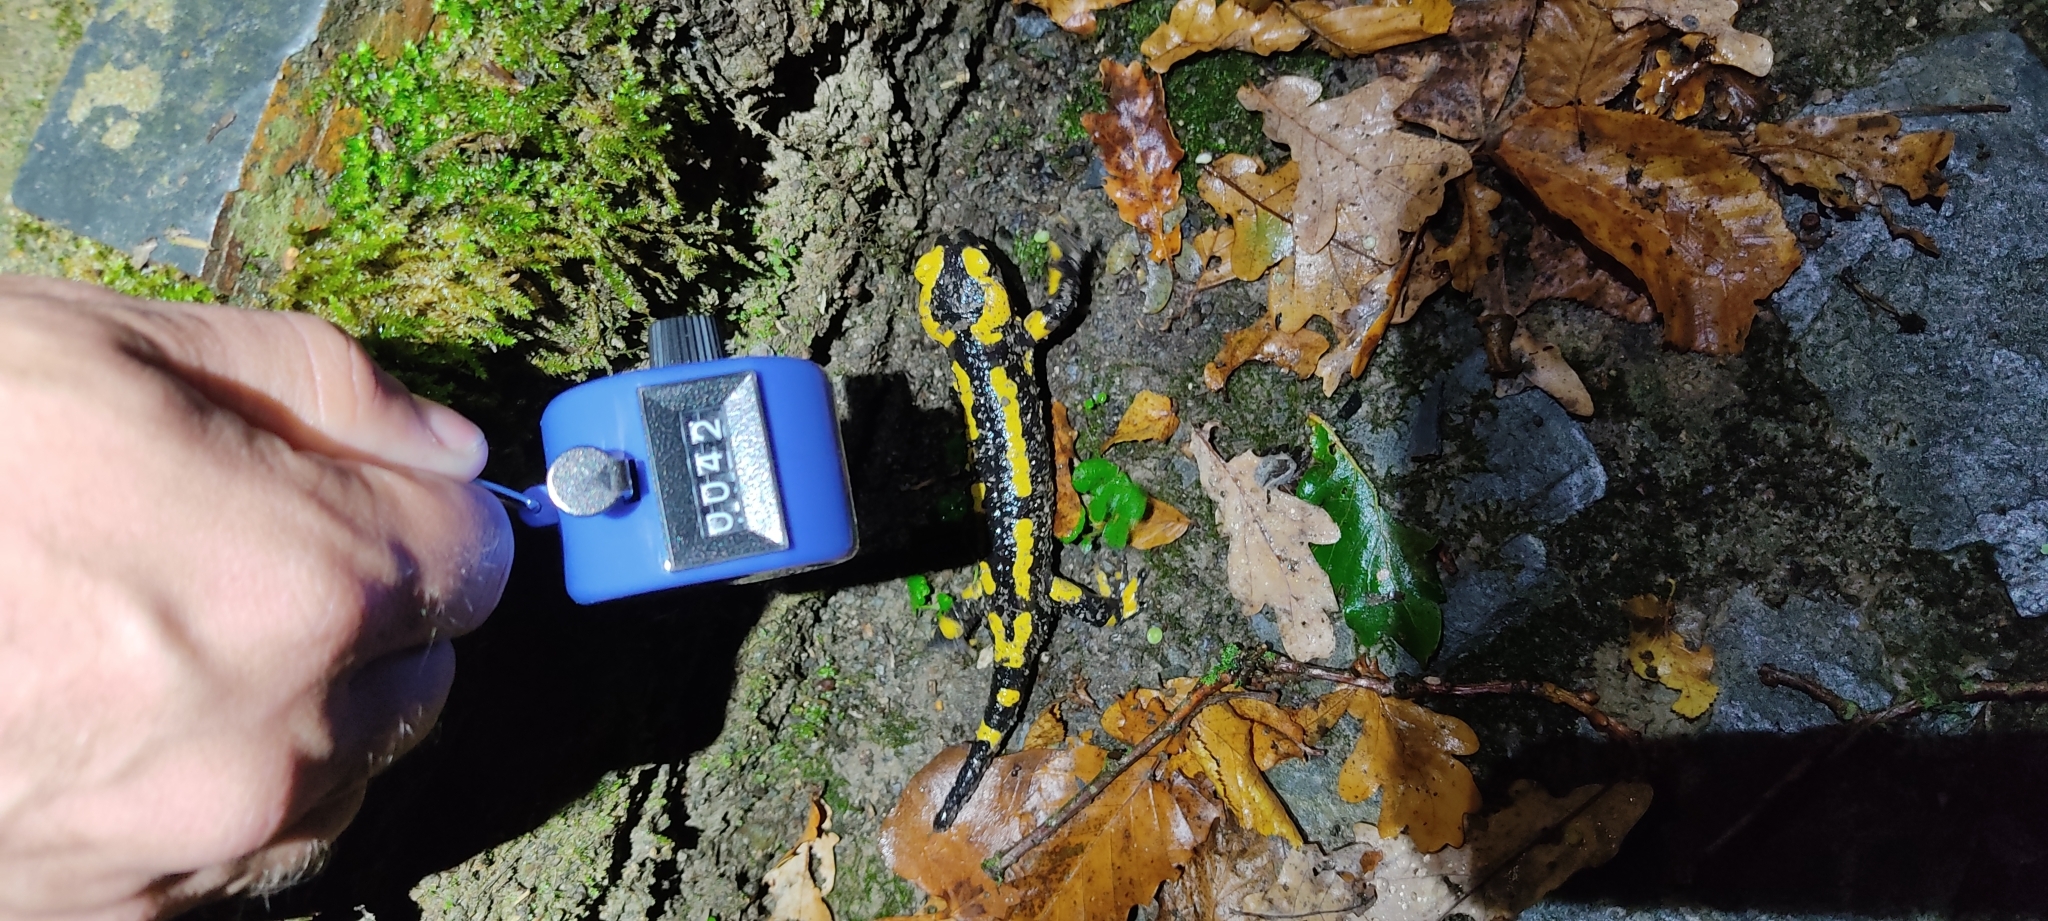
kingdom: Animalia
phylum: Chordata
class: Amphibia
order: Caudata
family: Salamandridae
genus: Salamandra
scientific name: Salamandra salamandra
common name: Fire salamander
